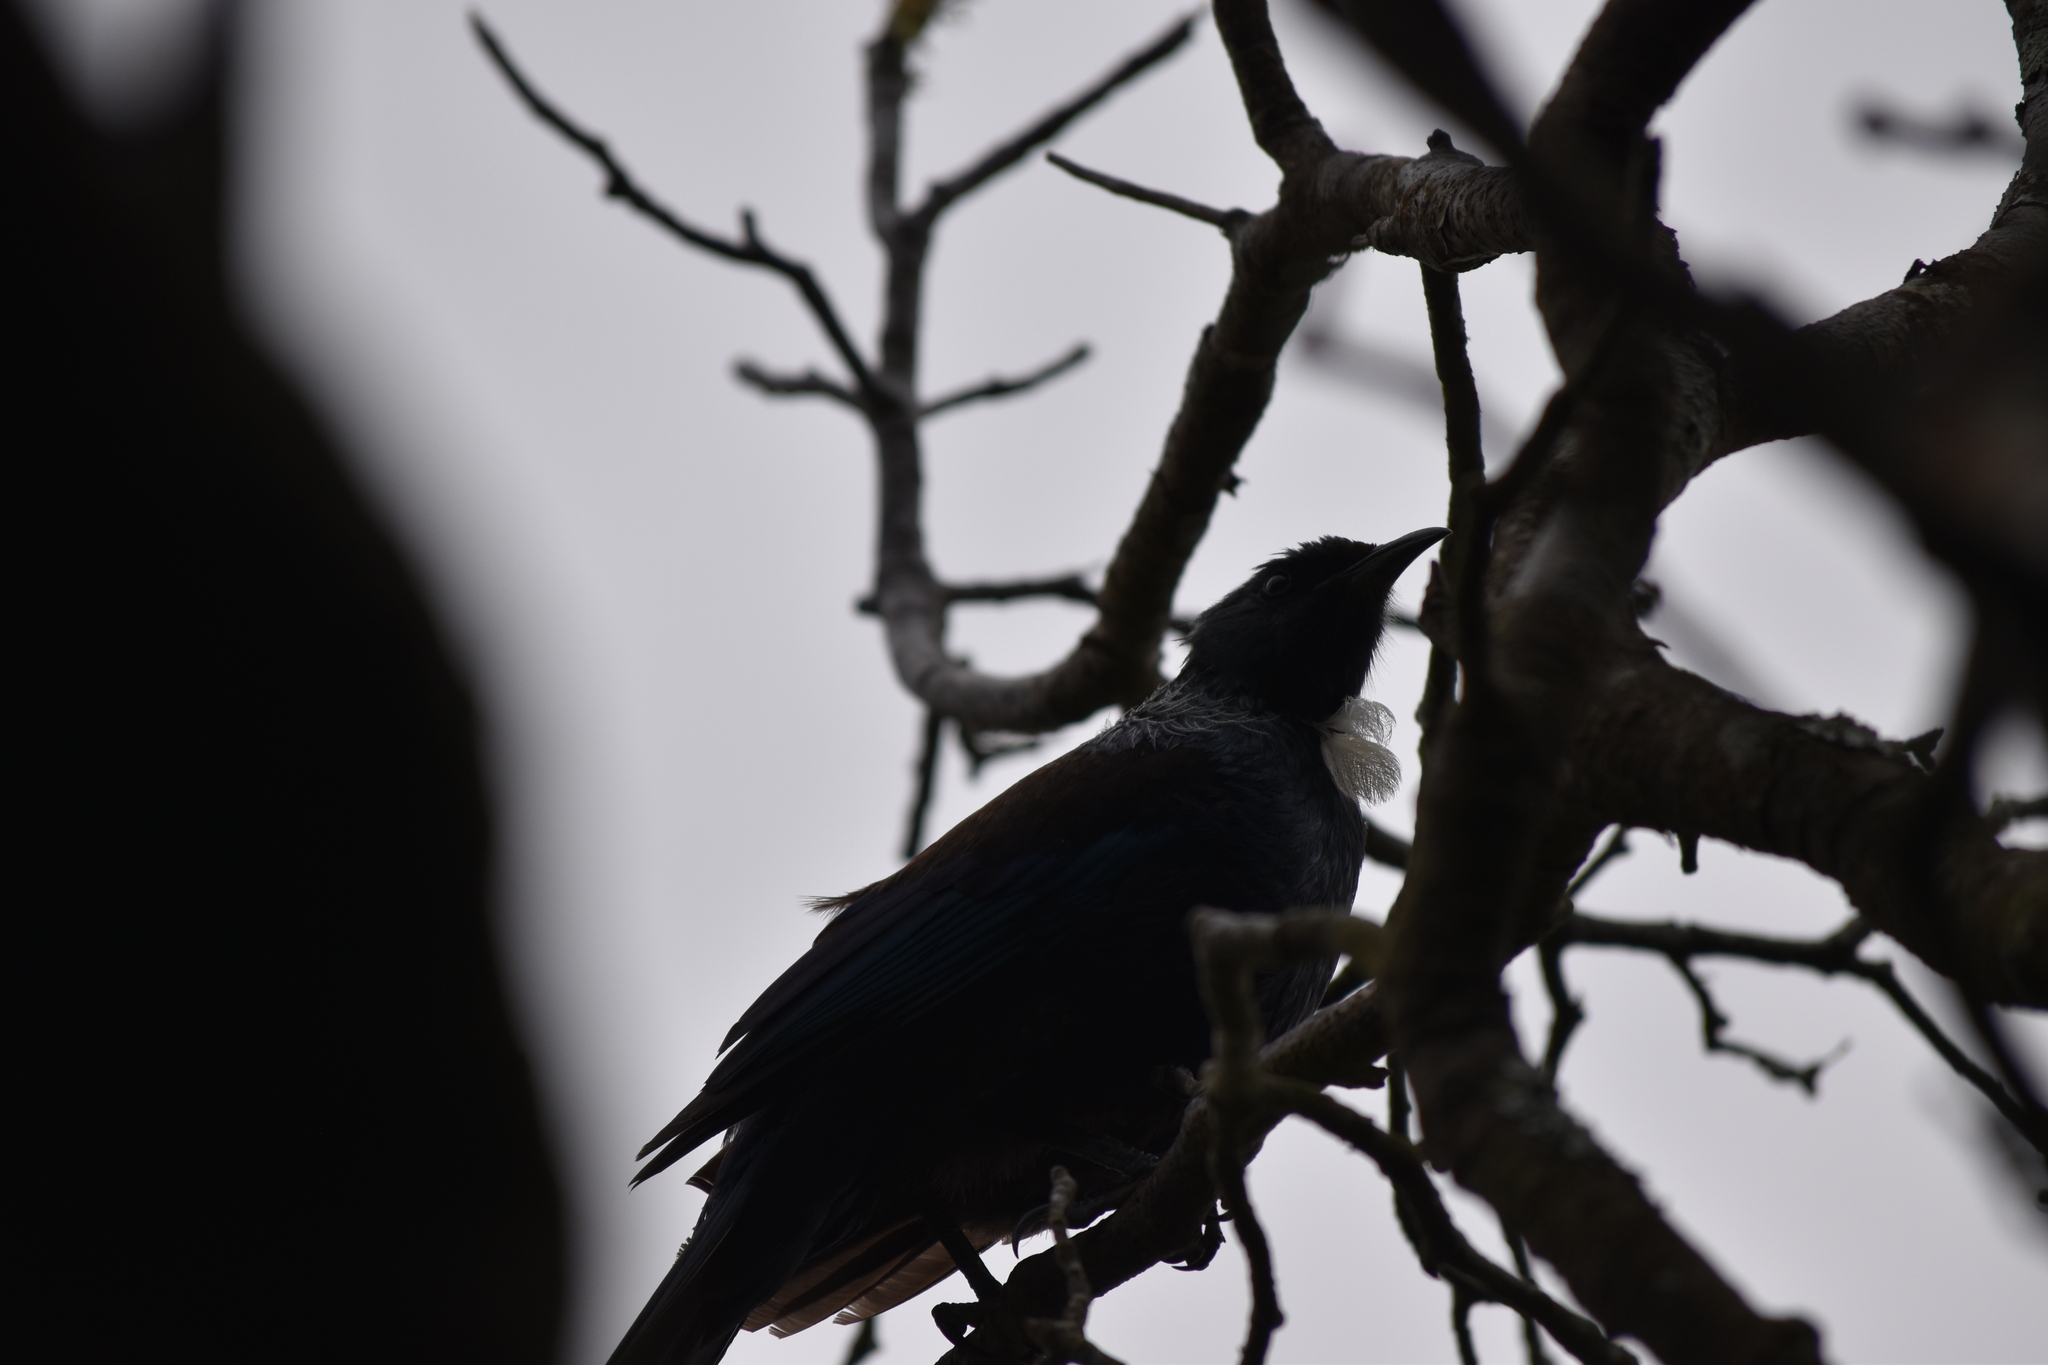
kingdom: Animalia
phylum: Chordata
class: Aves
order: Passeriformes
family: Meliphagidae
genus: Prosthemadera
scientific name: Prosthemadera novaeseelandiae
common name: Tui
